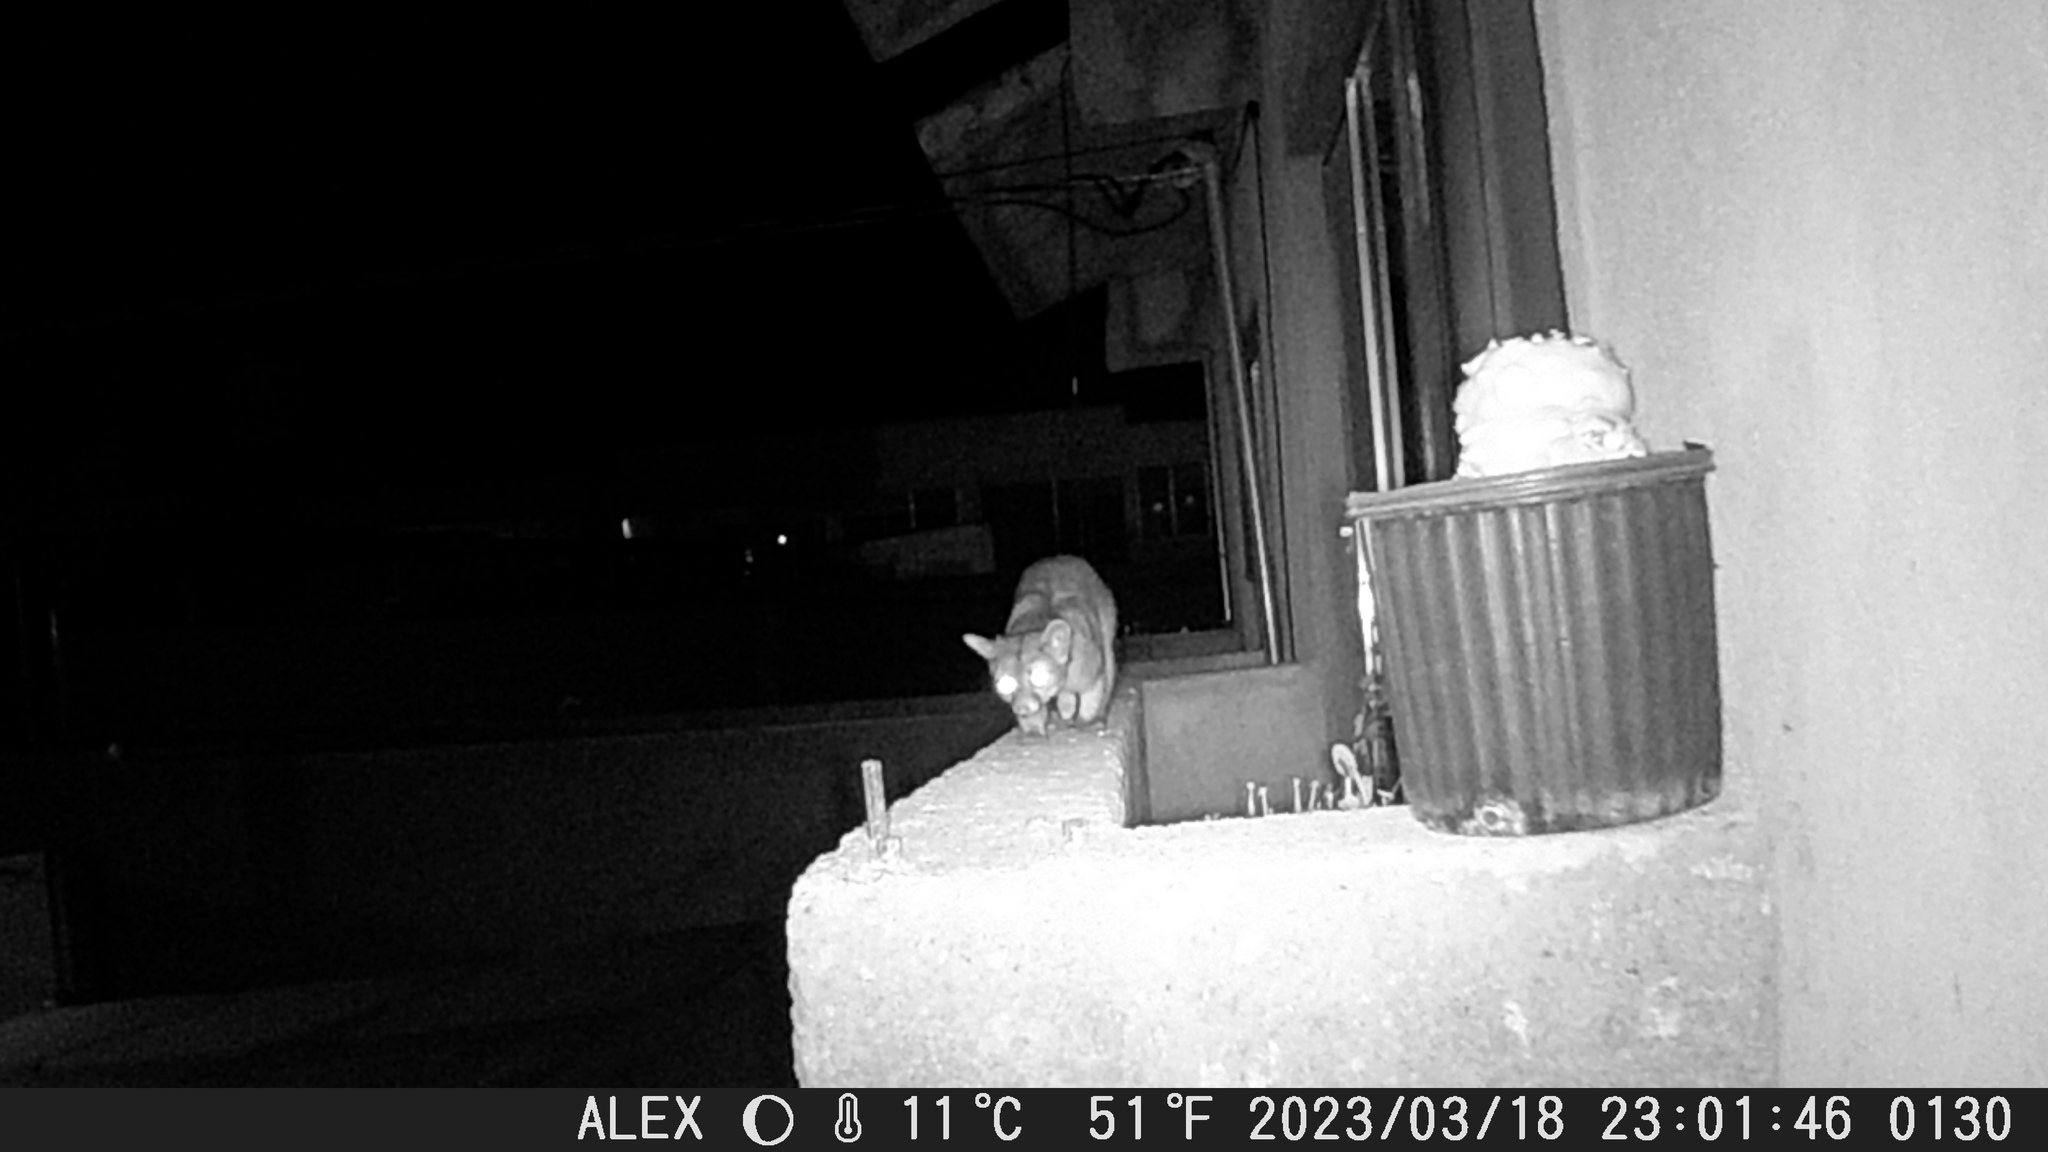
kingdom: Animalia
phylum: Chordata
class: Mammalia
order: Carnivora
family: Procyonidae
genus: Bassariscus
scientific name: Bassariscus astutus
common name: Ringtail
